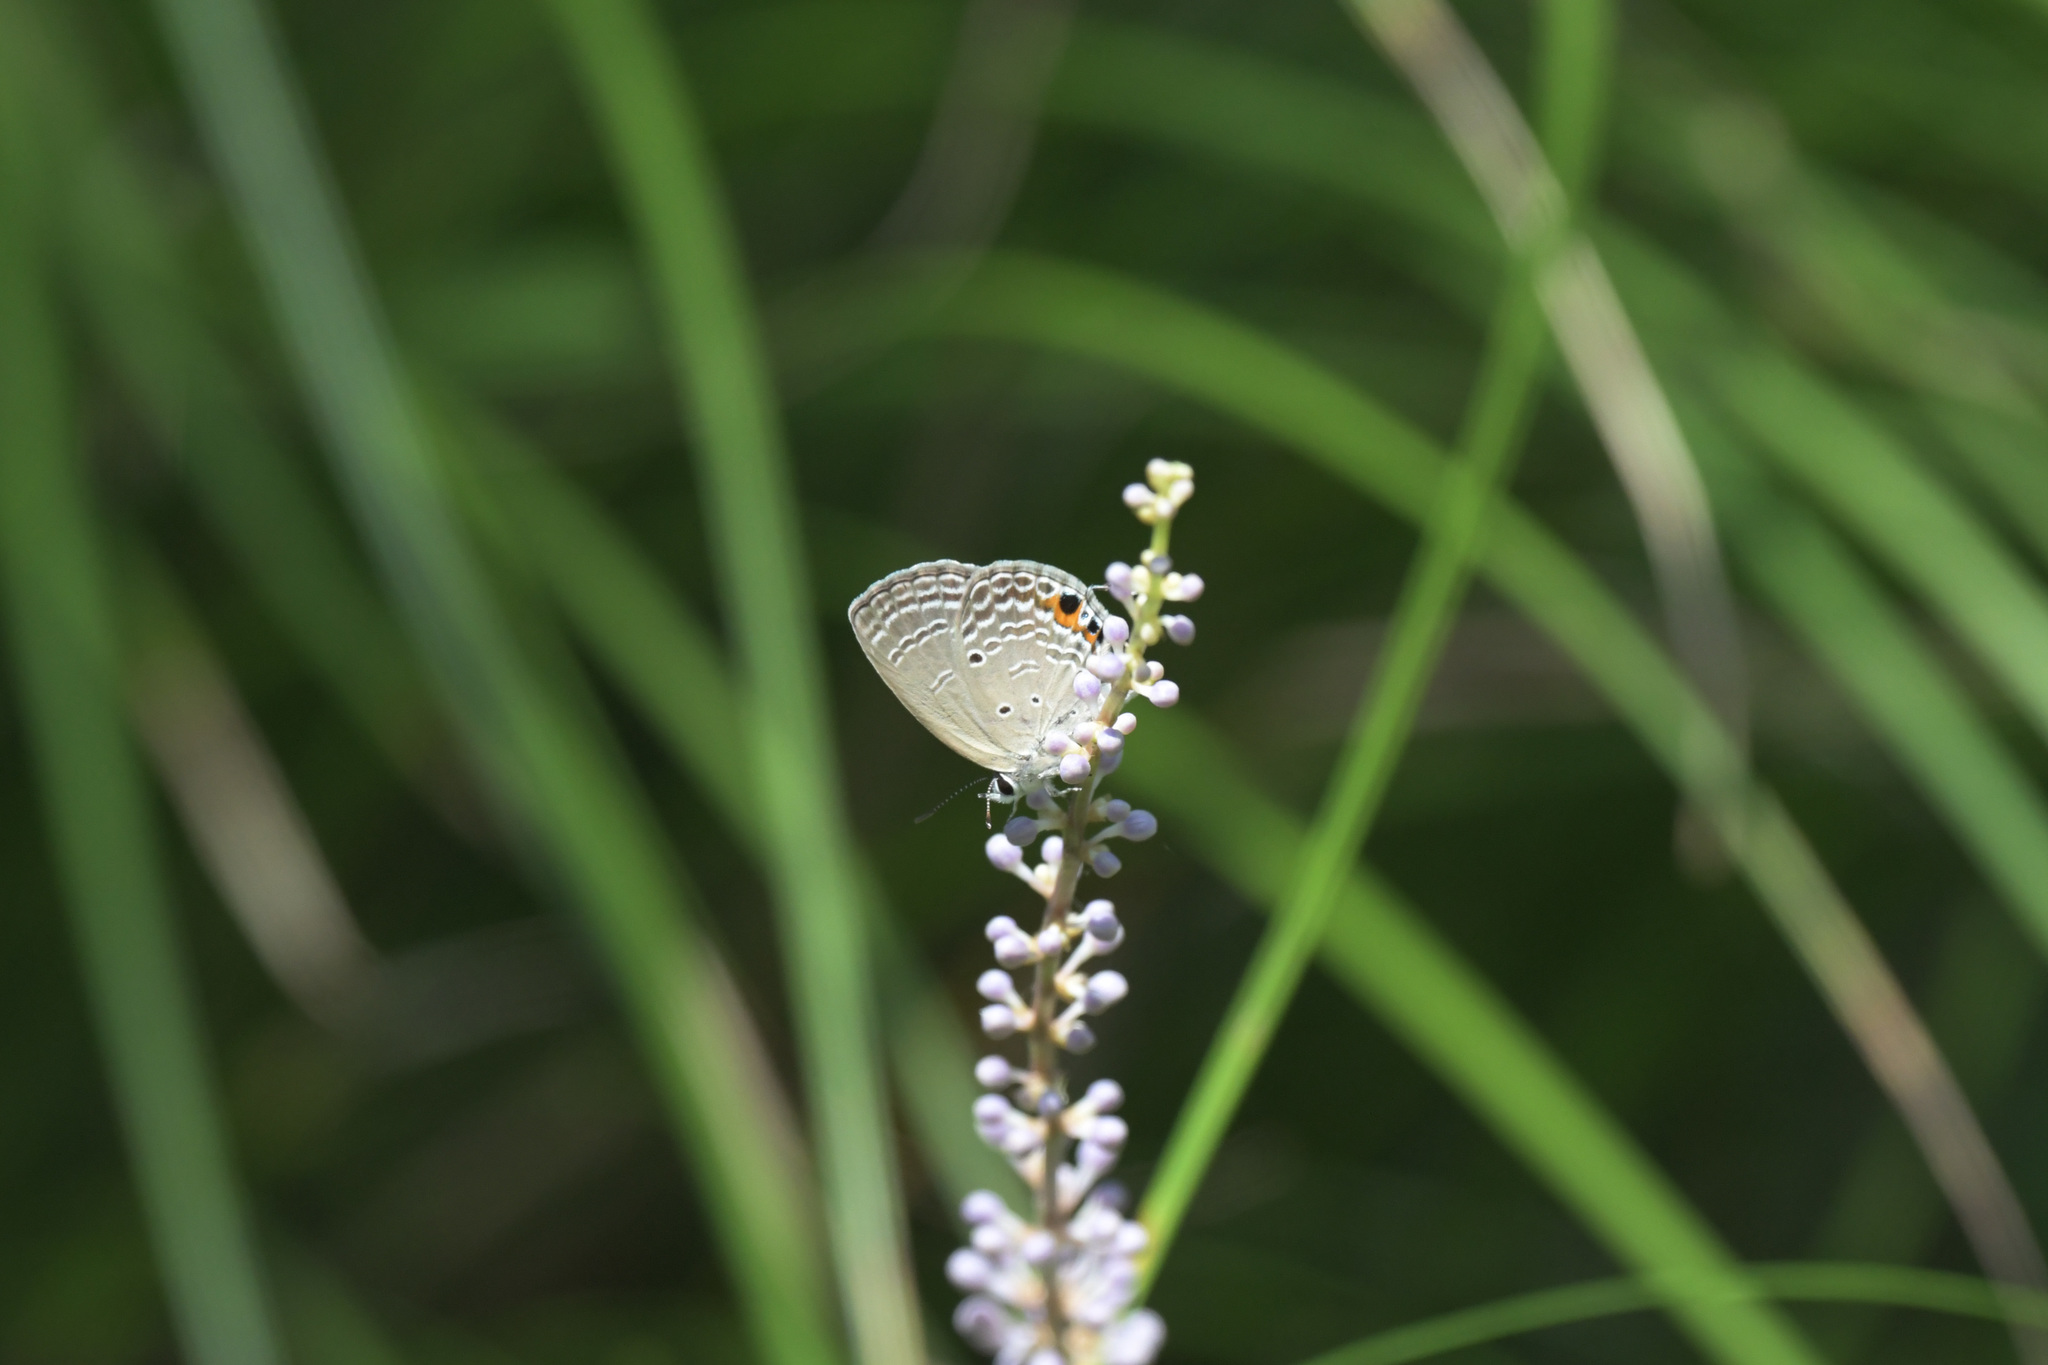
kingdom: Animalia
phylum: Arthropoda
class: Insecta
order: Lepidoptera
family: Lycaenidae
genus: Luthrodes
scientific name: Luthrodes pandava
